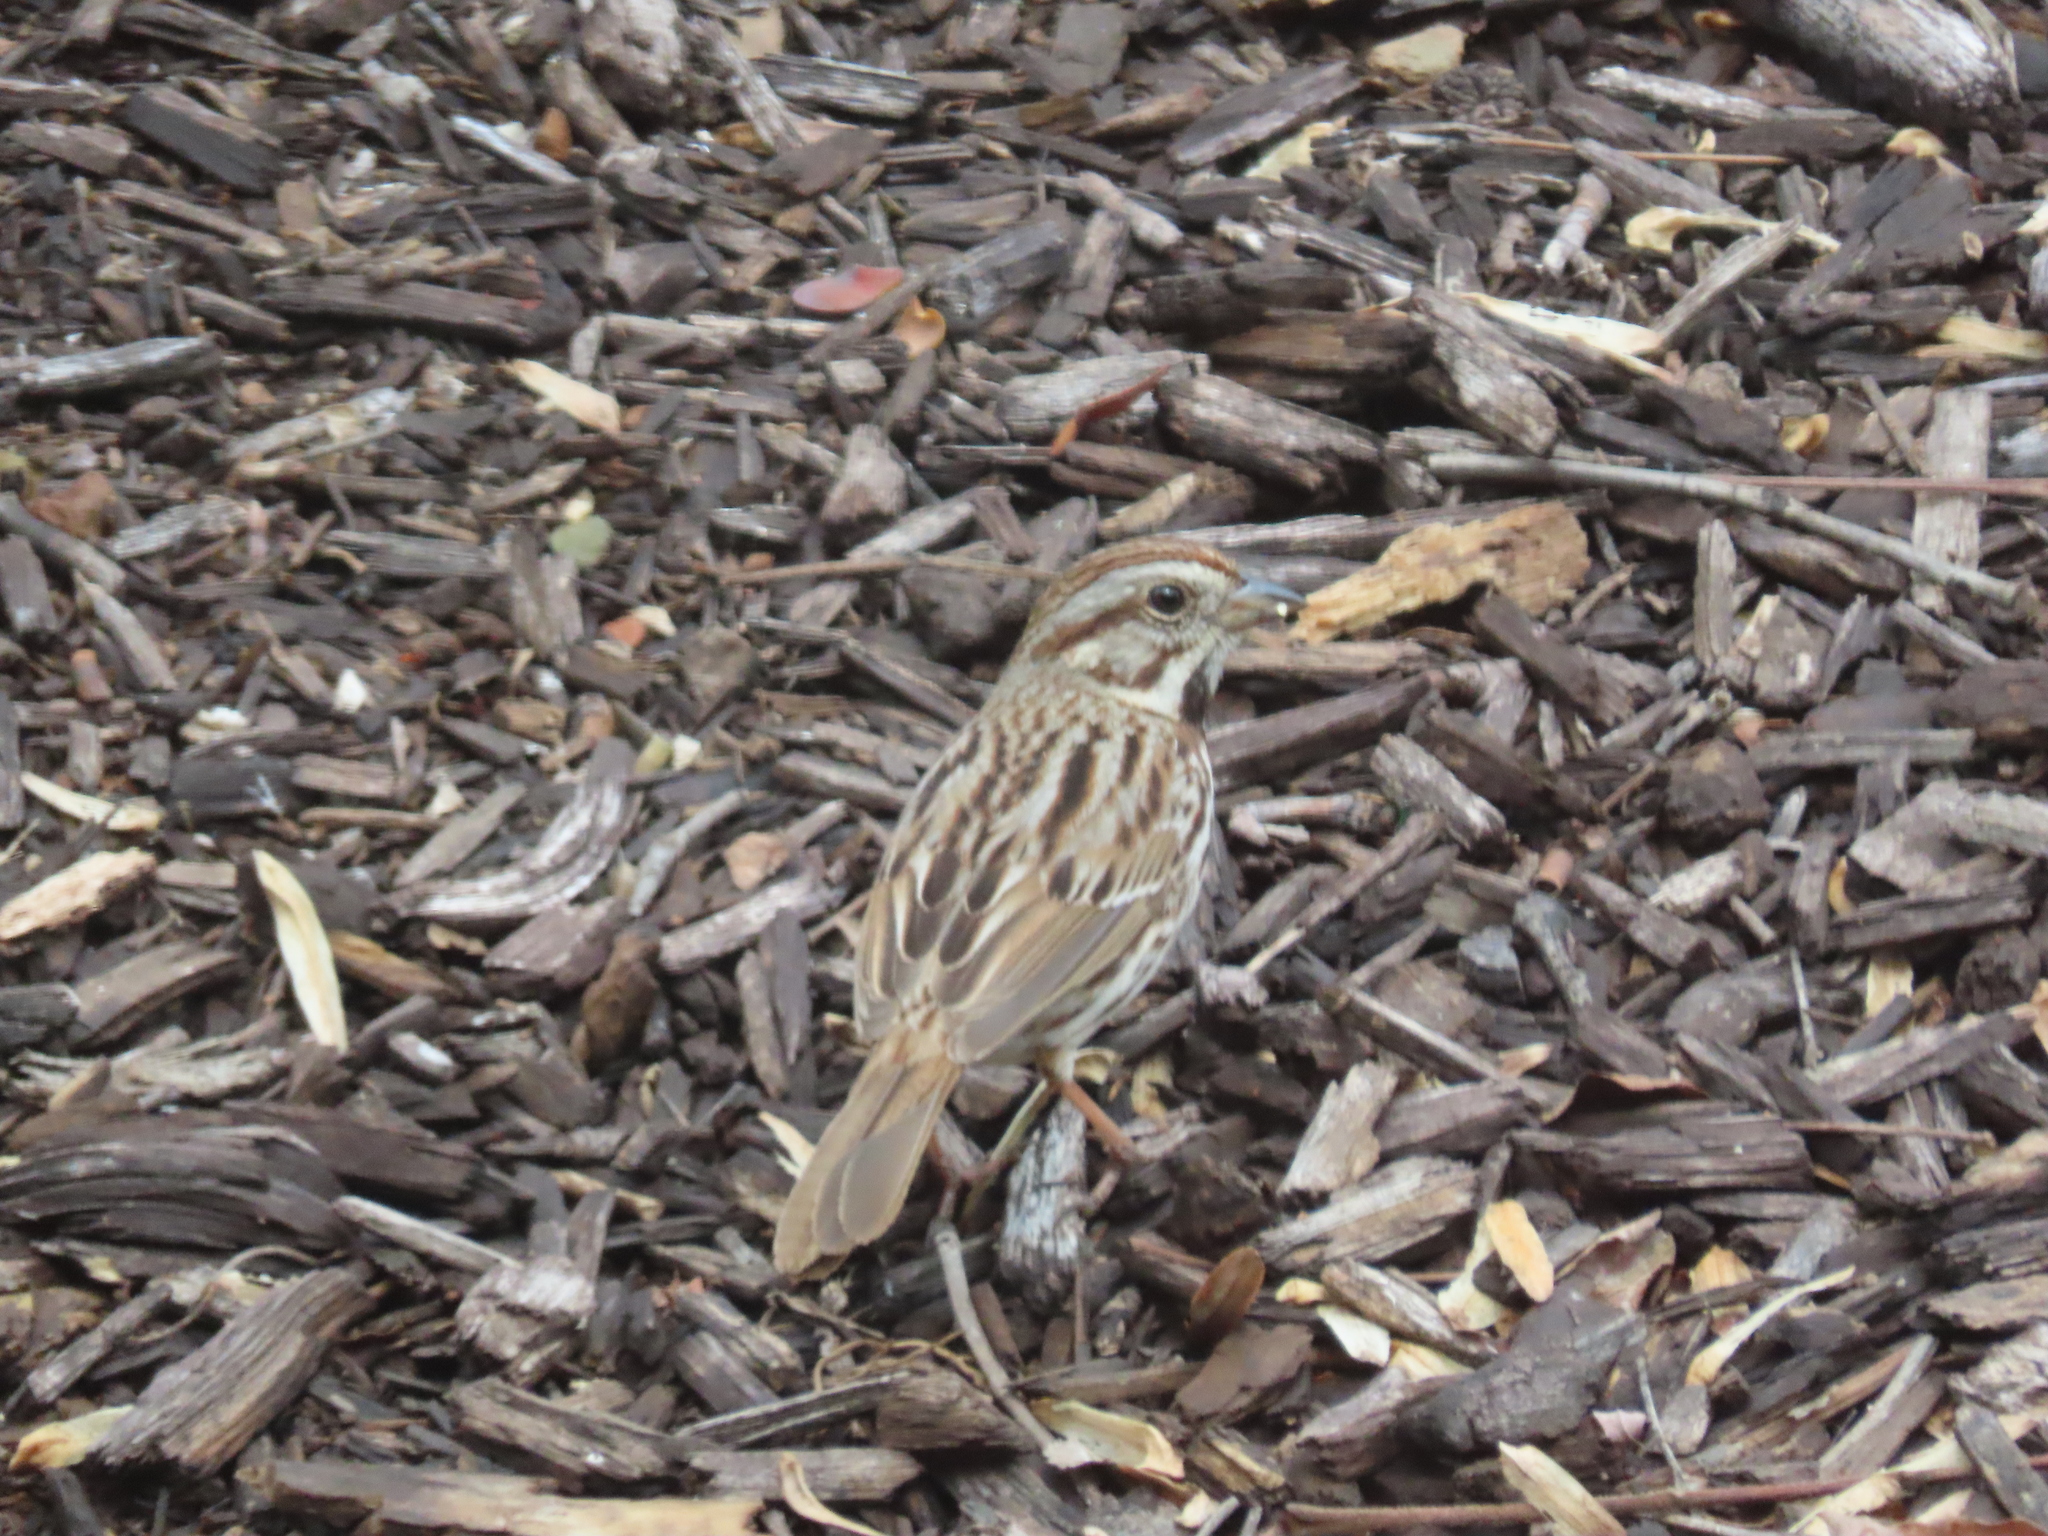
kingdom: Animalia
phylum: Chordata
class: Aves
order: Passeriformes
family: Passerellidae
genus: Melospiza
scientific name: Melospiza melodia
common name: Song sparrow
